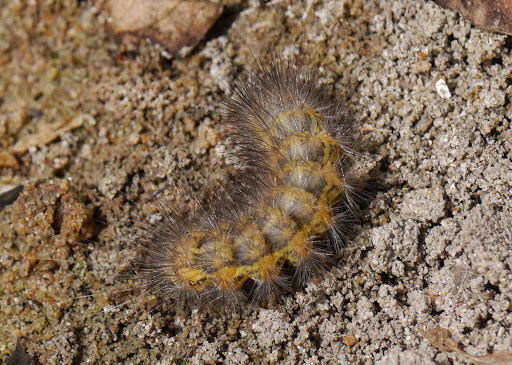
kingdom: Animalia
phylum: Arthropoda
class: Insecta
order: Lepidoptera
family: Erebidae
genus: Estigmene
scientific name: Estigmene acrea
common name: Salt marsh moth
